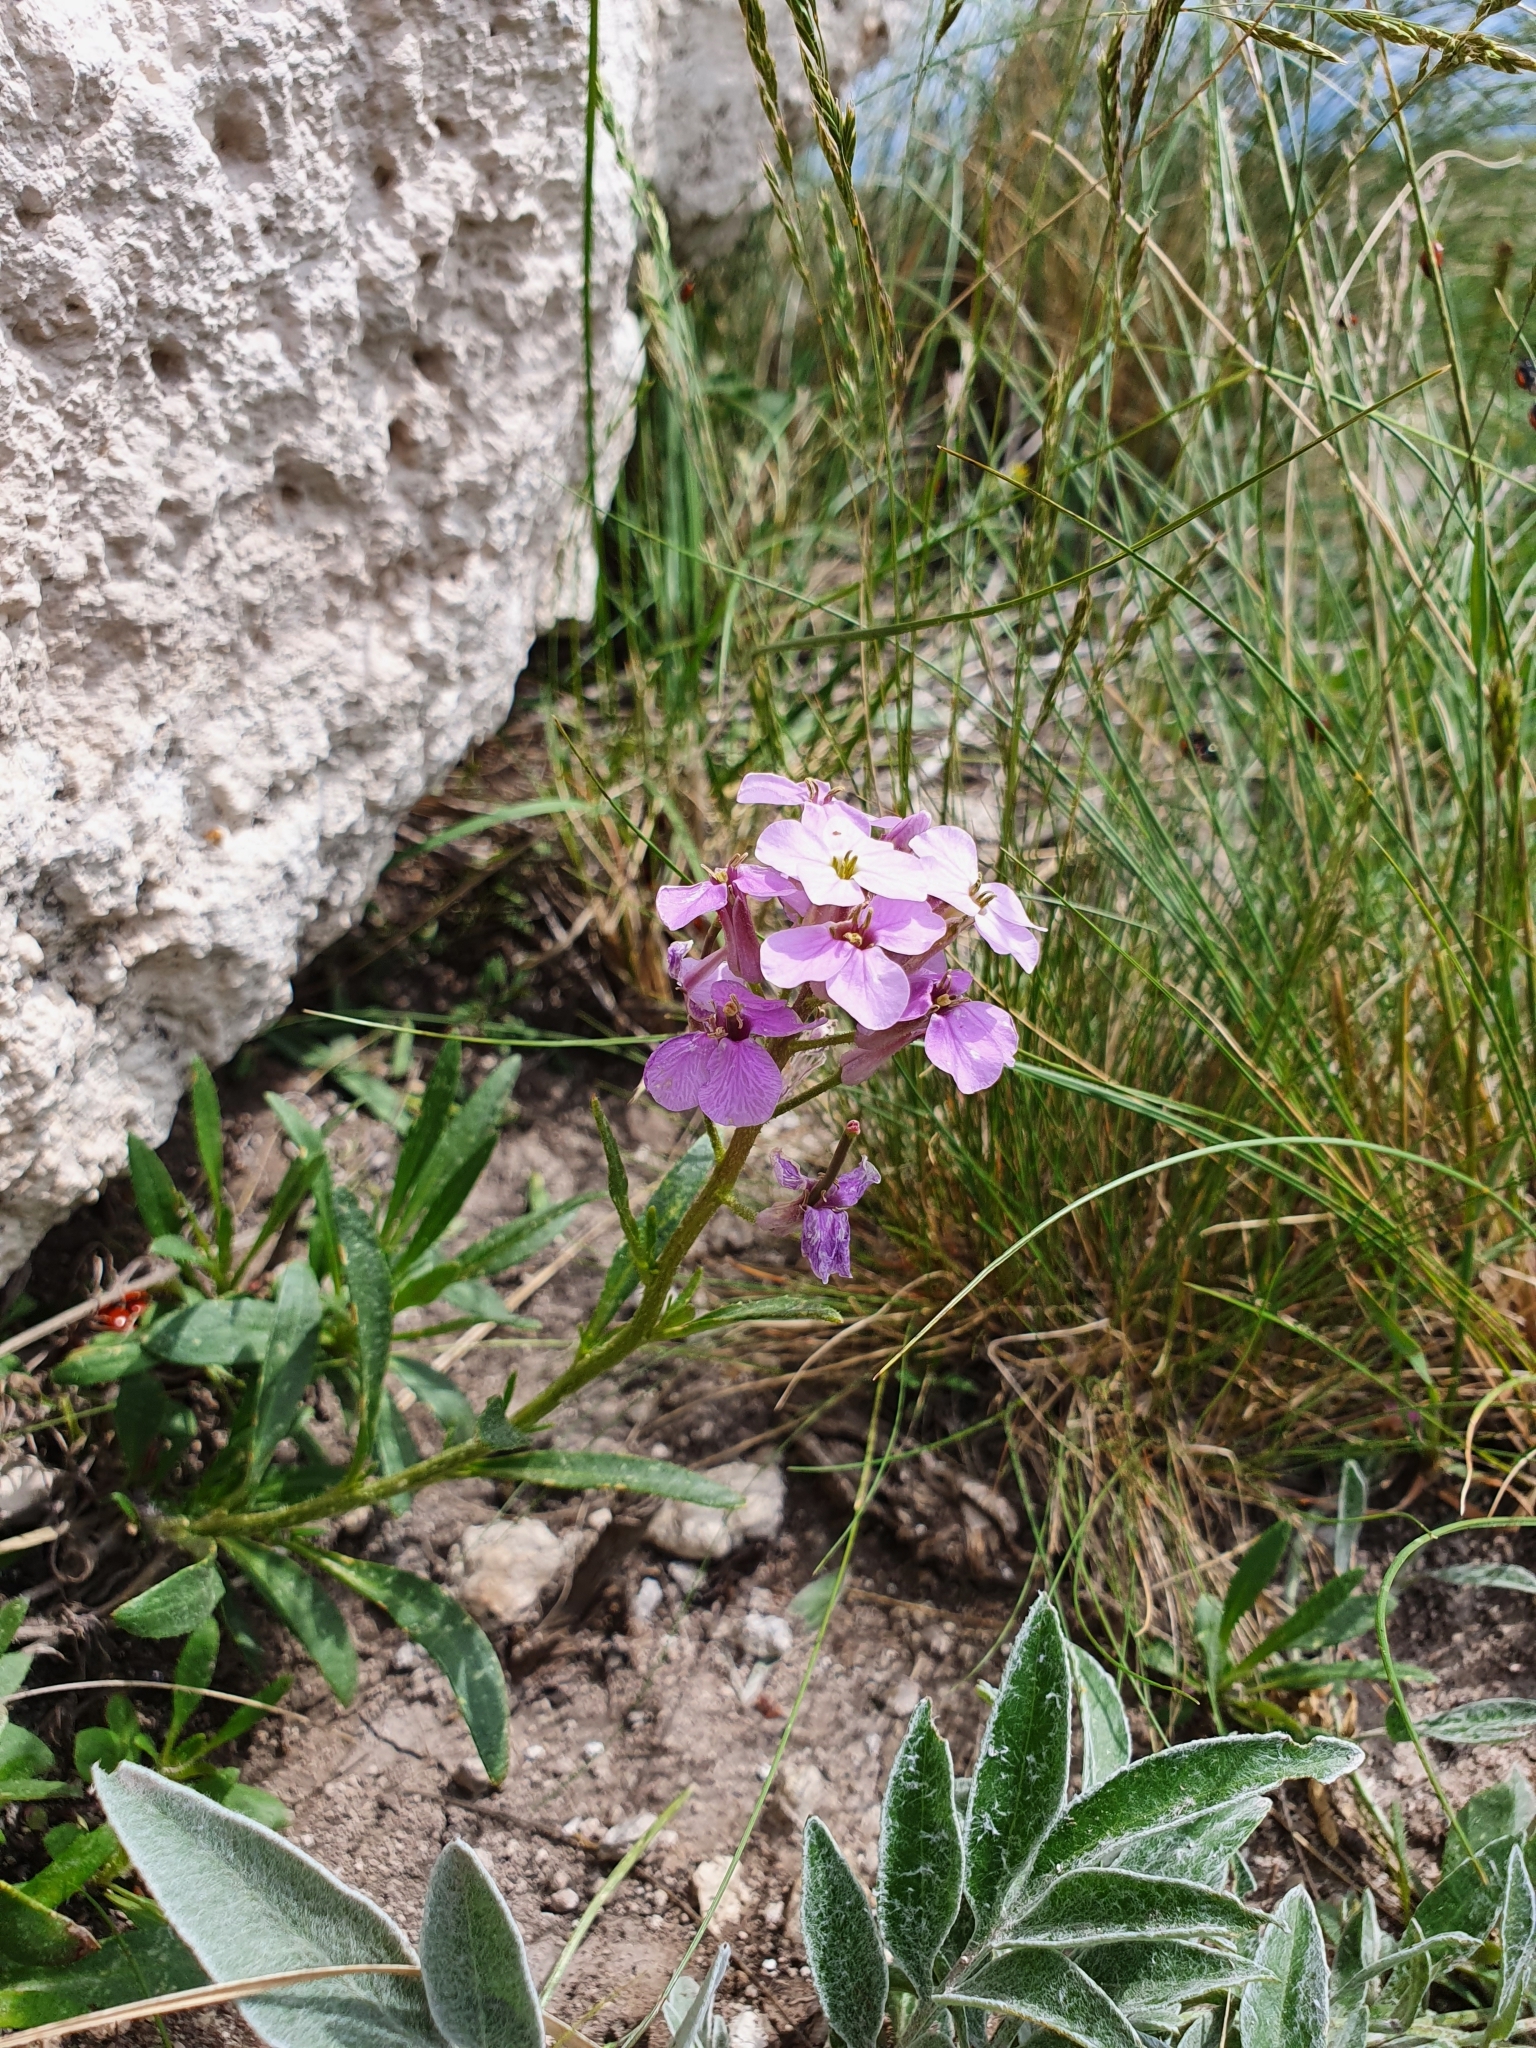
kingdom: Plantae
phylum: Tracheophyta
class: Magnoliopsida
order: Brassicales
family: Brassicaceae
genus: Clausia
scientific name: Clausia aprica
